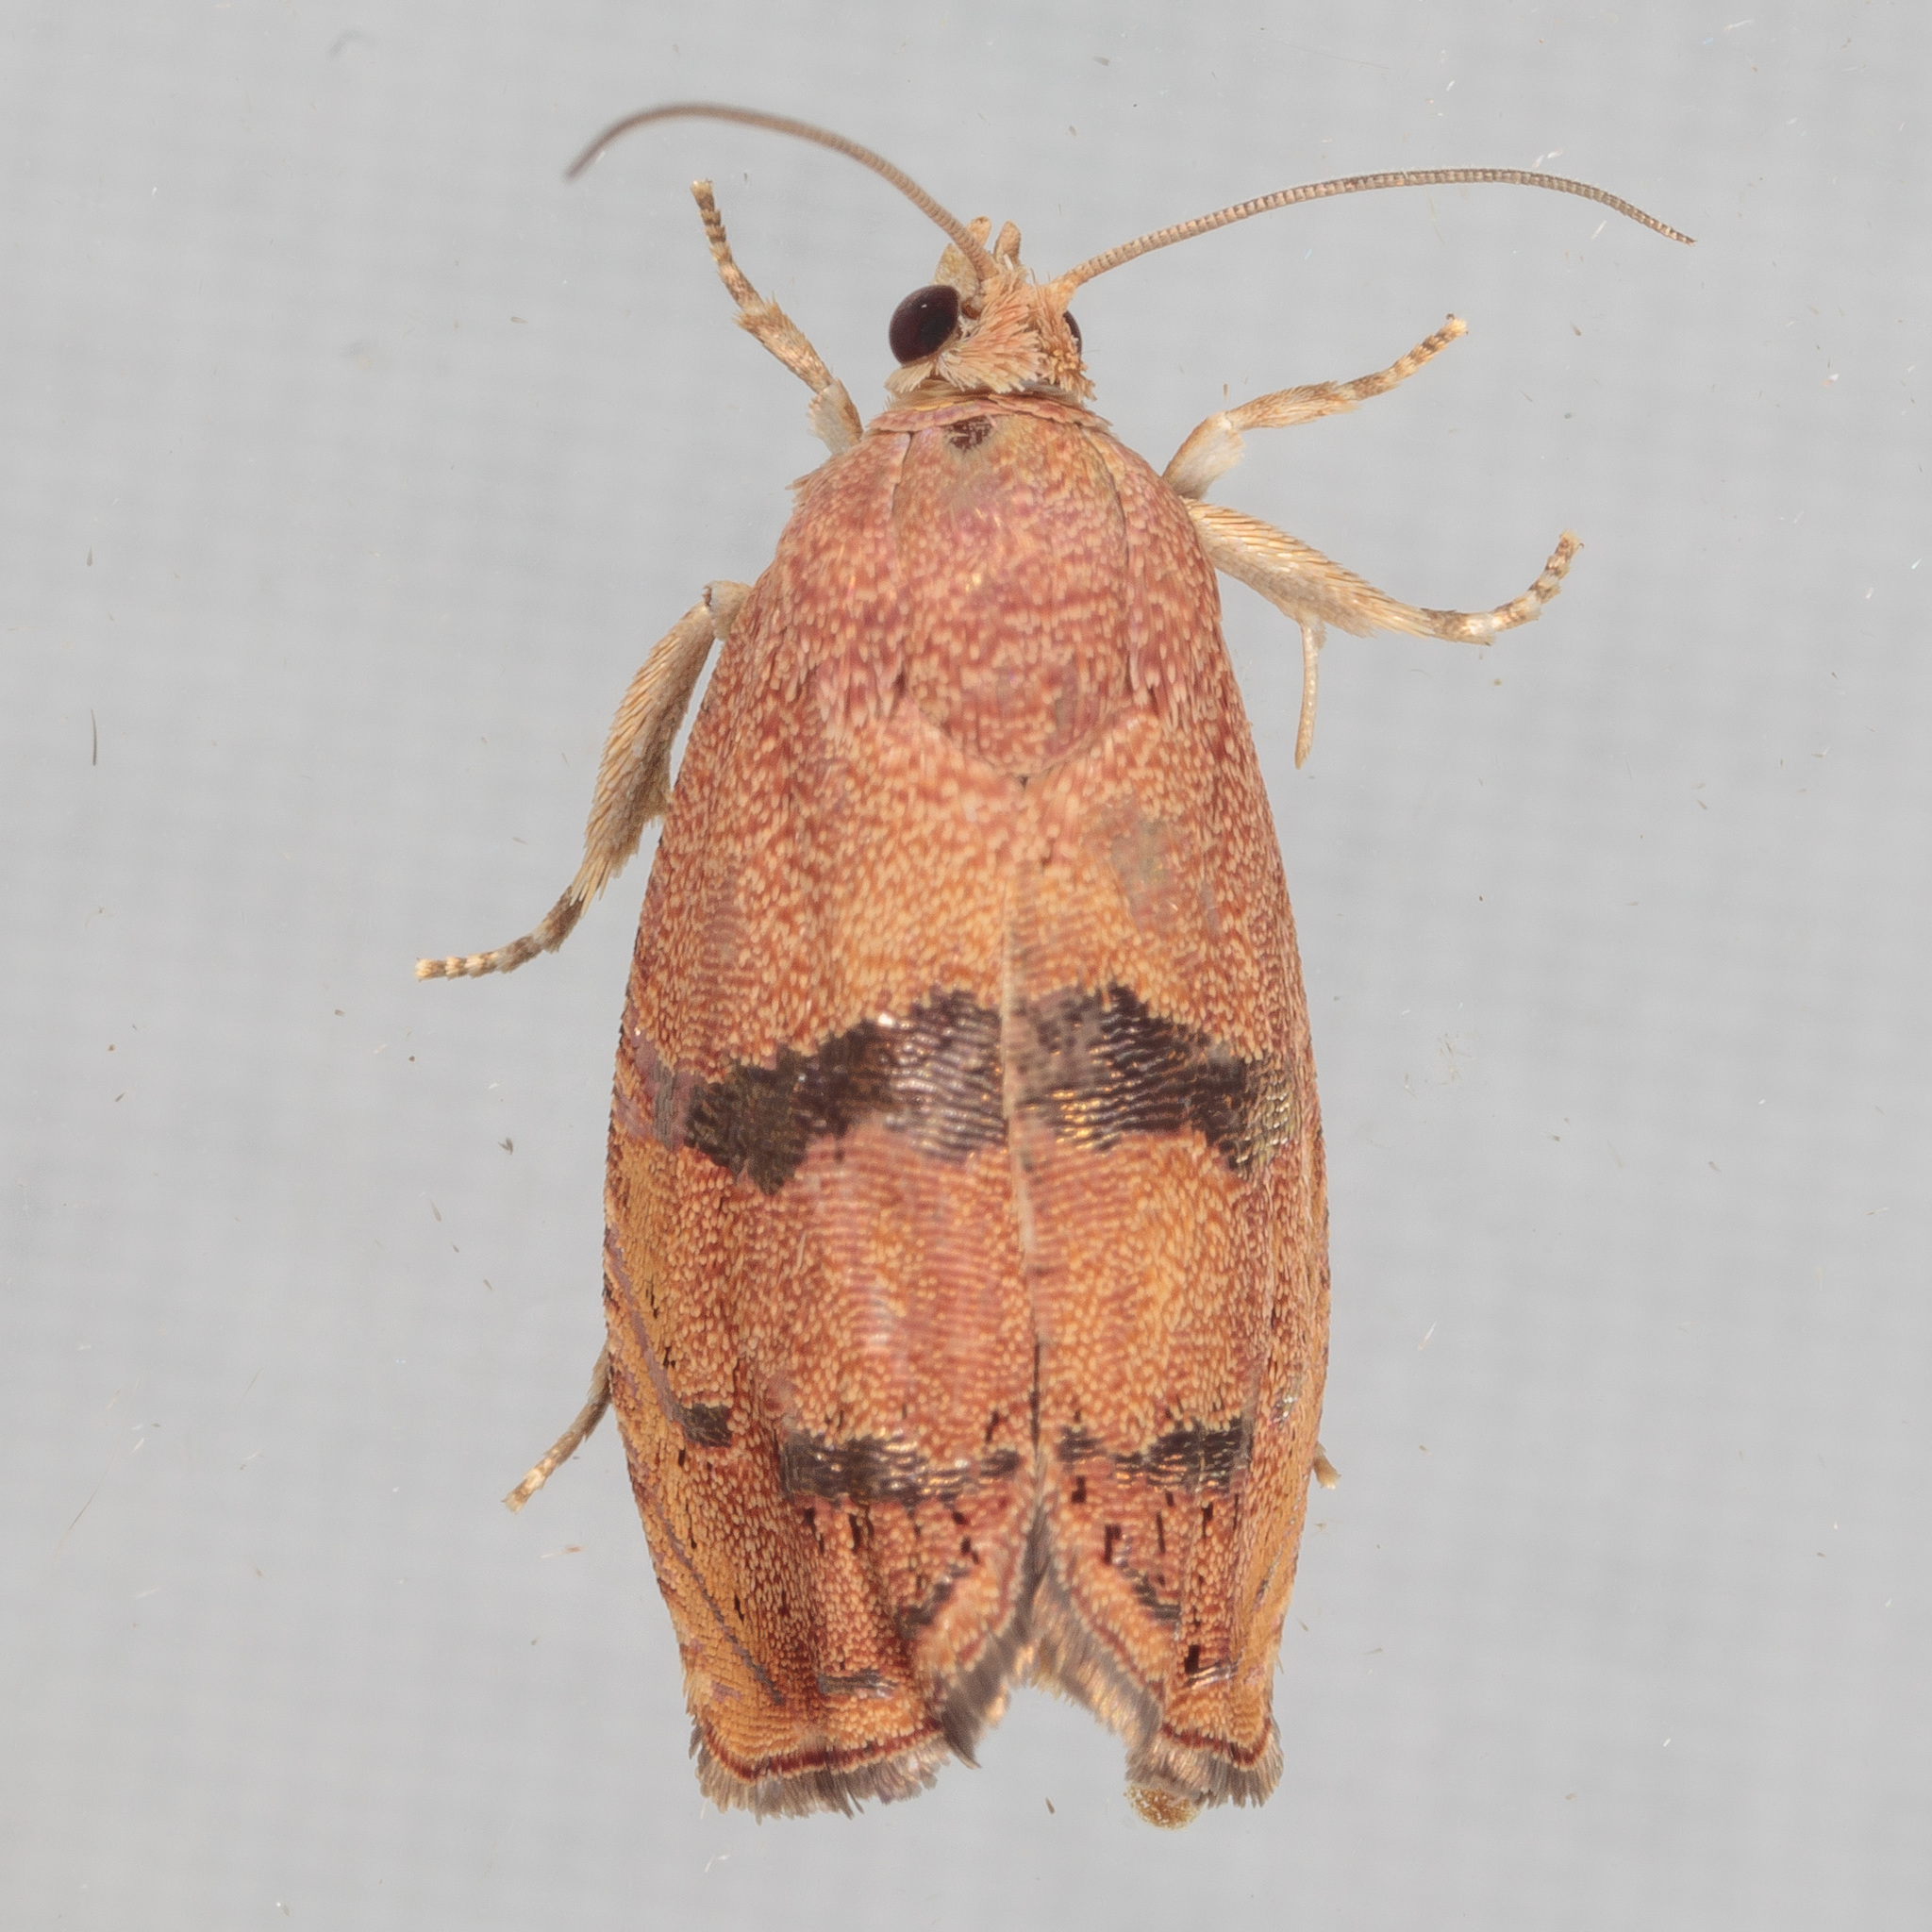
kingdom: Animalia
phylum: Arthropoda
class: Insecta
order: Lepidoptera
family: Tortricidae
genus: Cydia
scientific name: Cydia latiferreana
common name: Filbertworm moth
